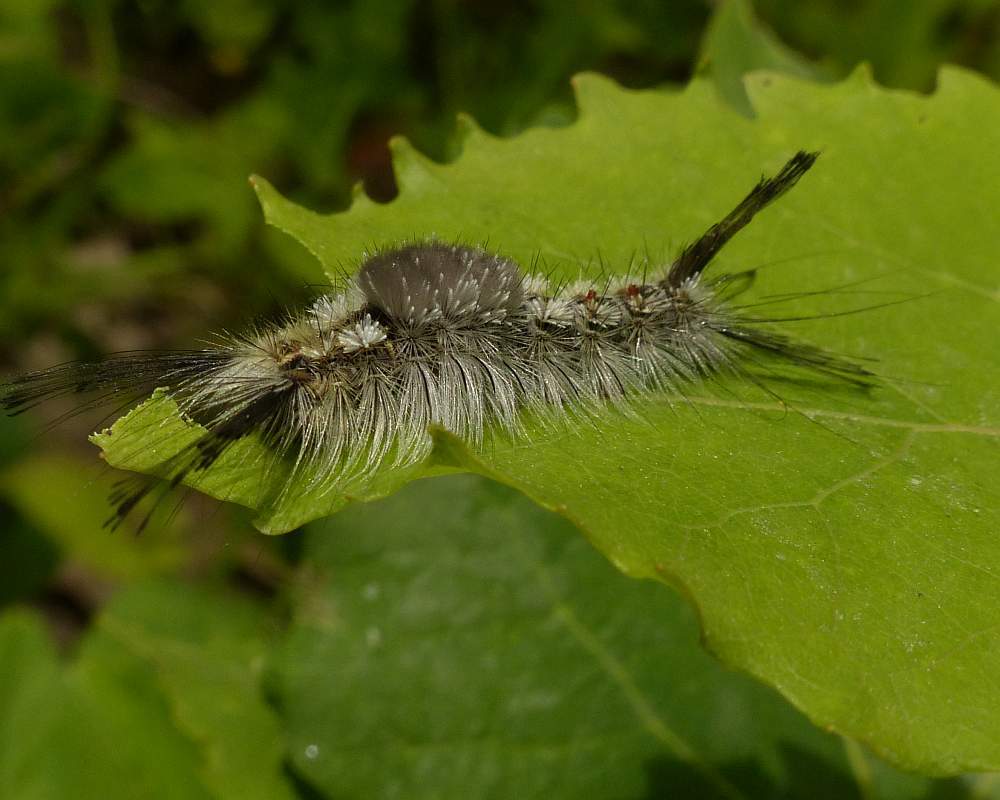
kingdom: Animalia
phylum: Arthropoda
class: Insecta
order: Lepidoptera
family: Erebidae
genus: Dasychira
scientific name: Dasychira dorsipennata
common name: Sharp-lined tussock moth
